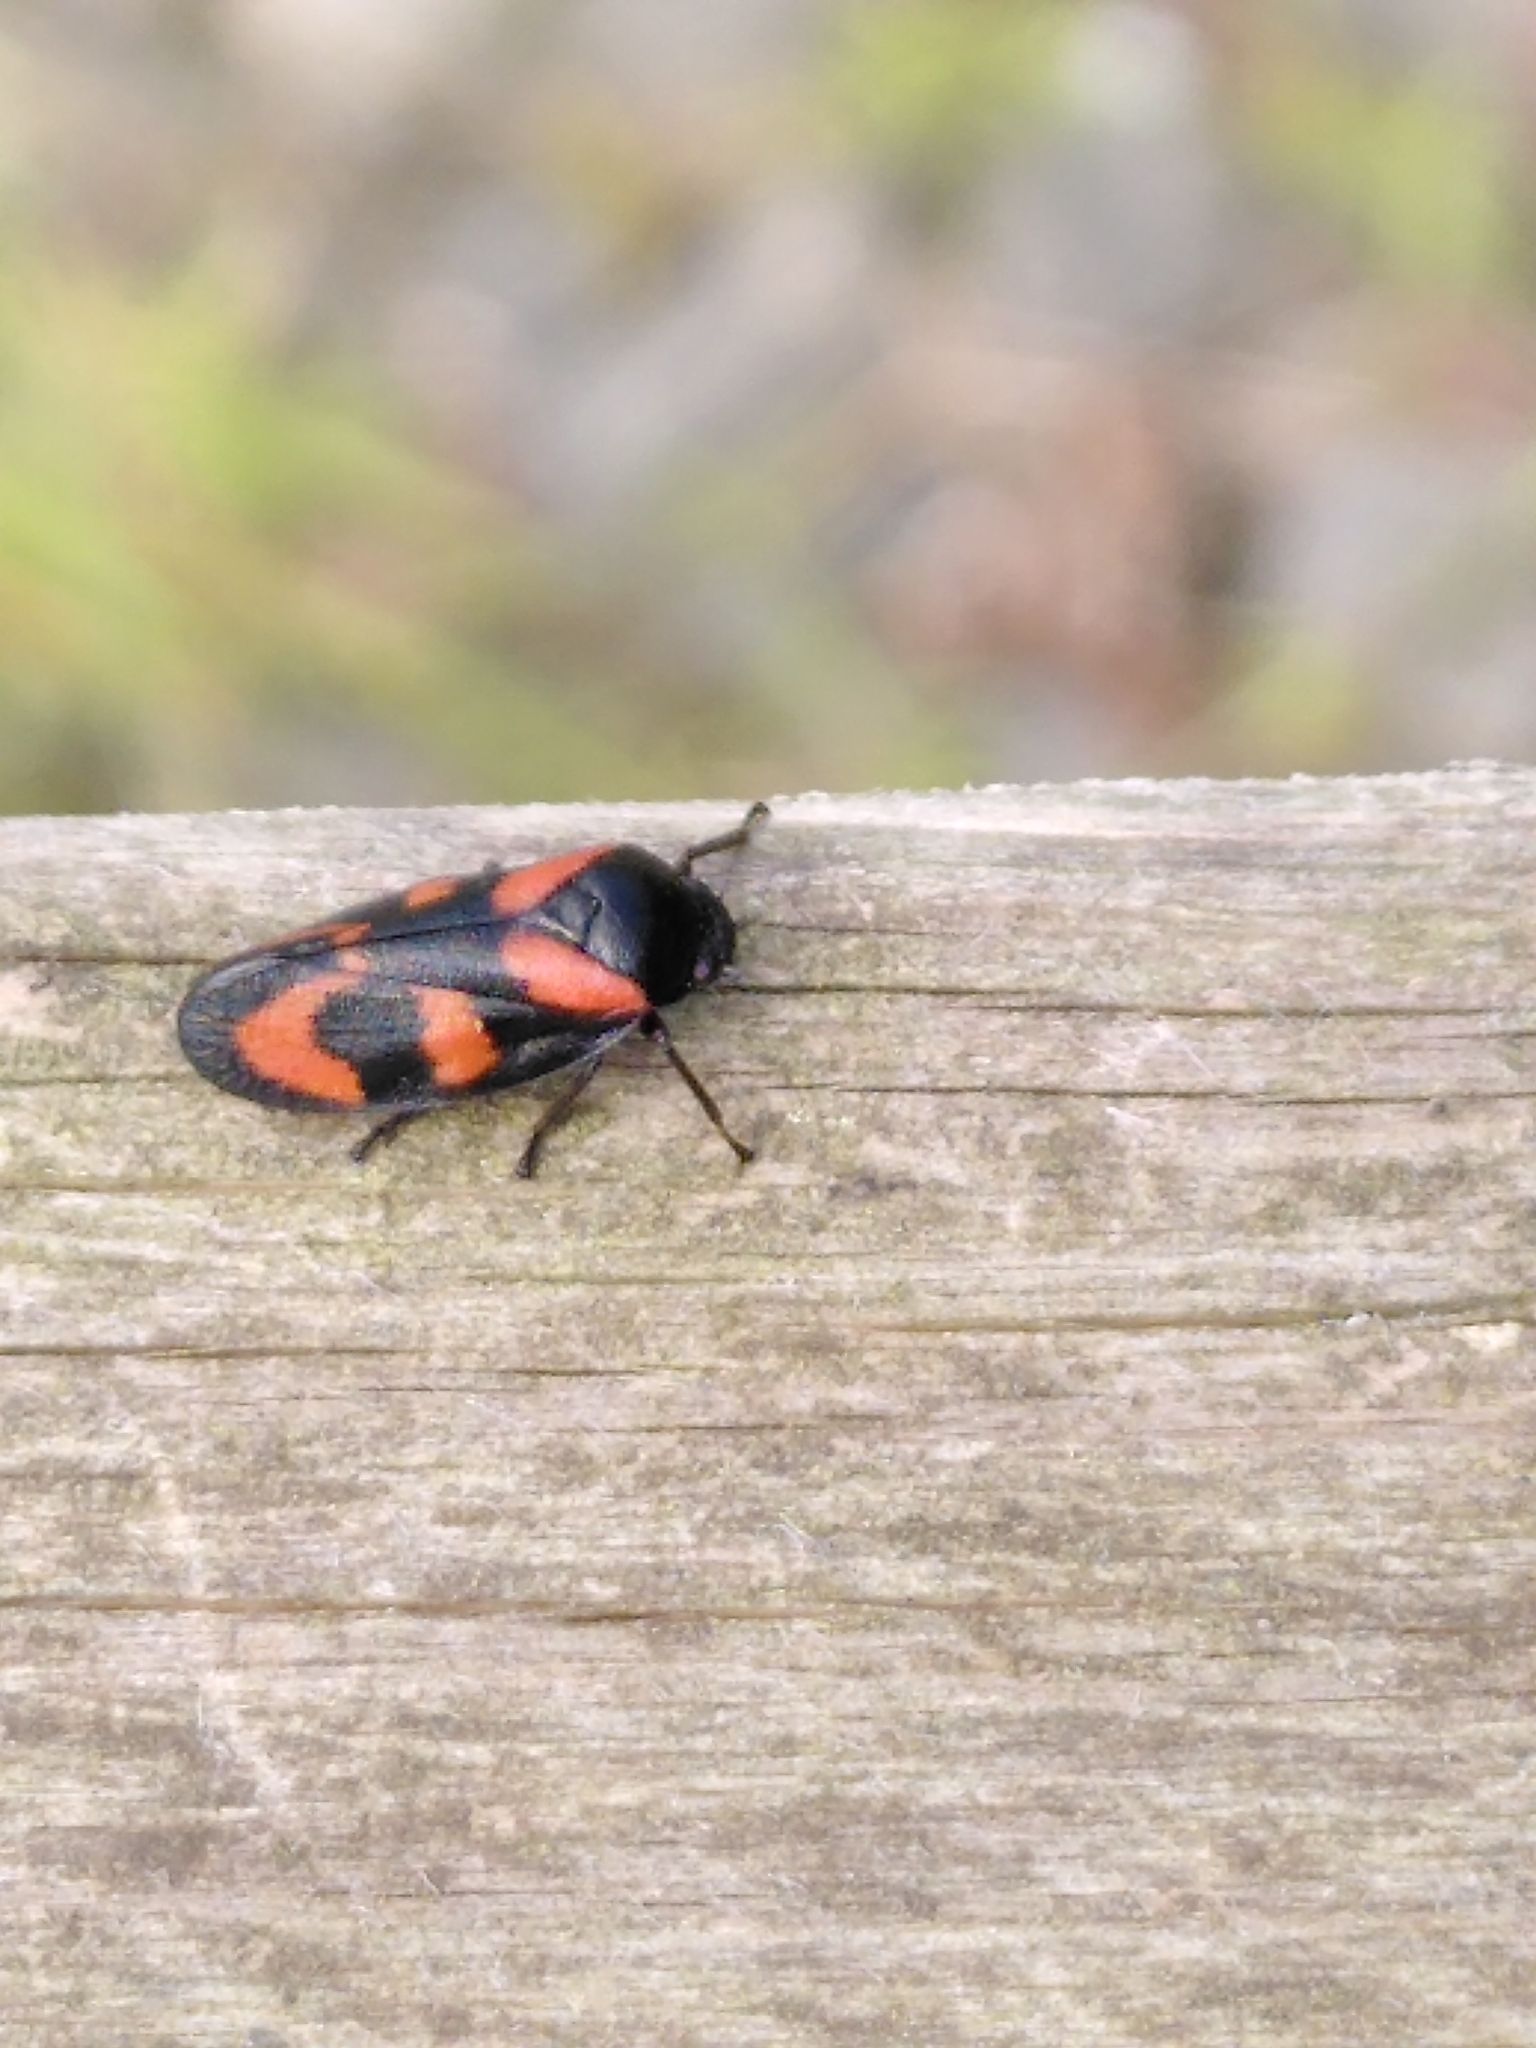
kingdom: Animalia
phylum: Arthropoda
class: Insecta
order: Hemiptera
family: Cercopidae
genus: Cercopis
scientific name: Cercopis vulnerata
